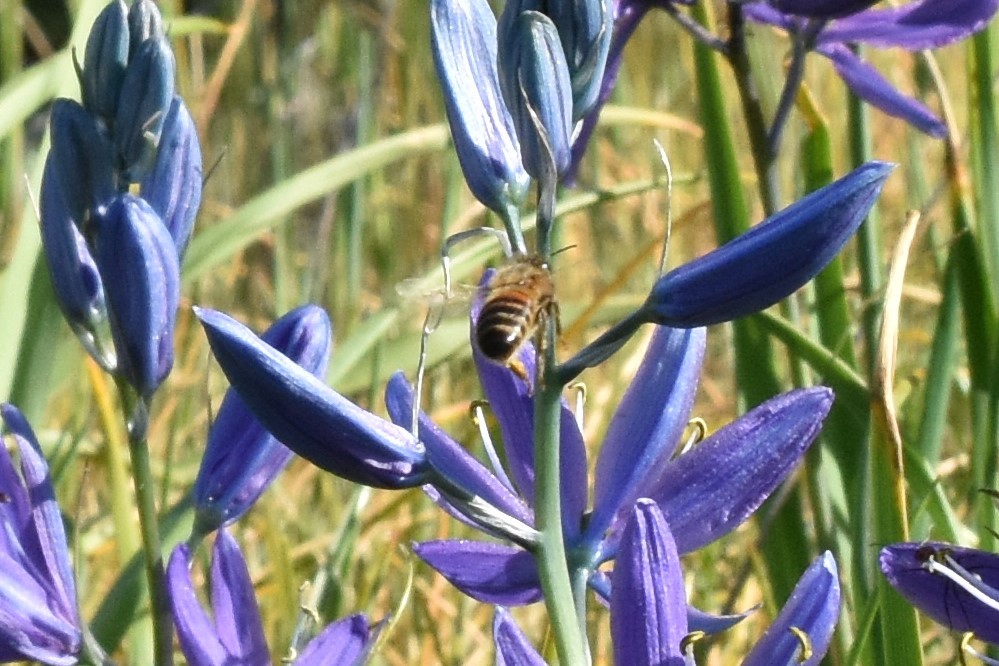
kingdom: Animalia
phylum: Arthropoda
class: Insecta
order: Hymenoptera
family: Apidae
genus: Apis
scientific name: Apis mellifera
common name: Honey bee
